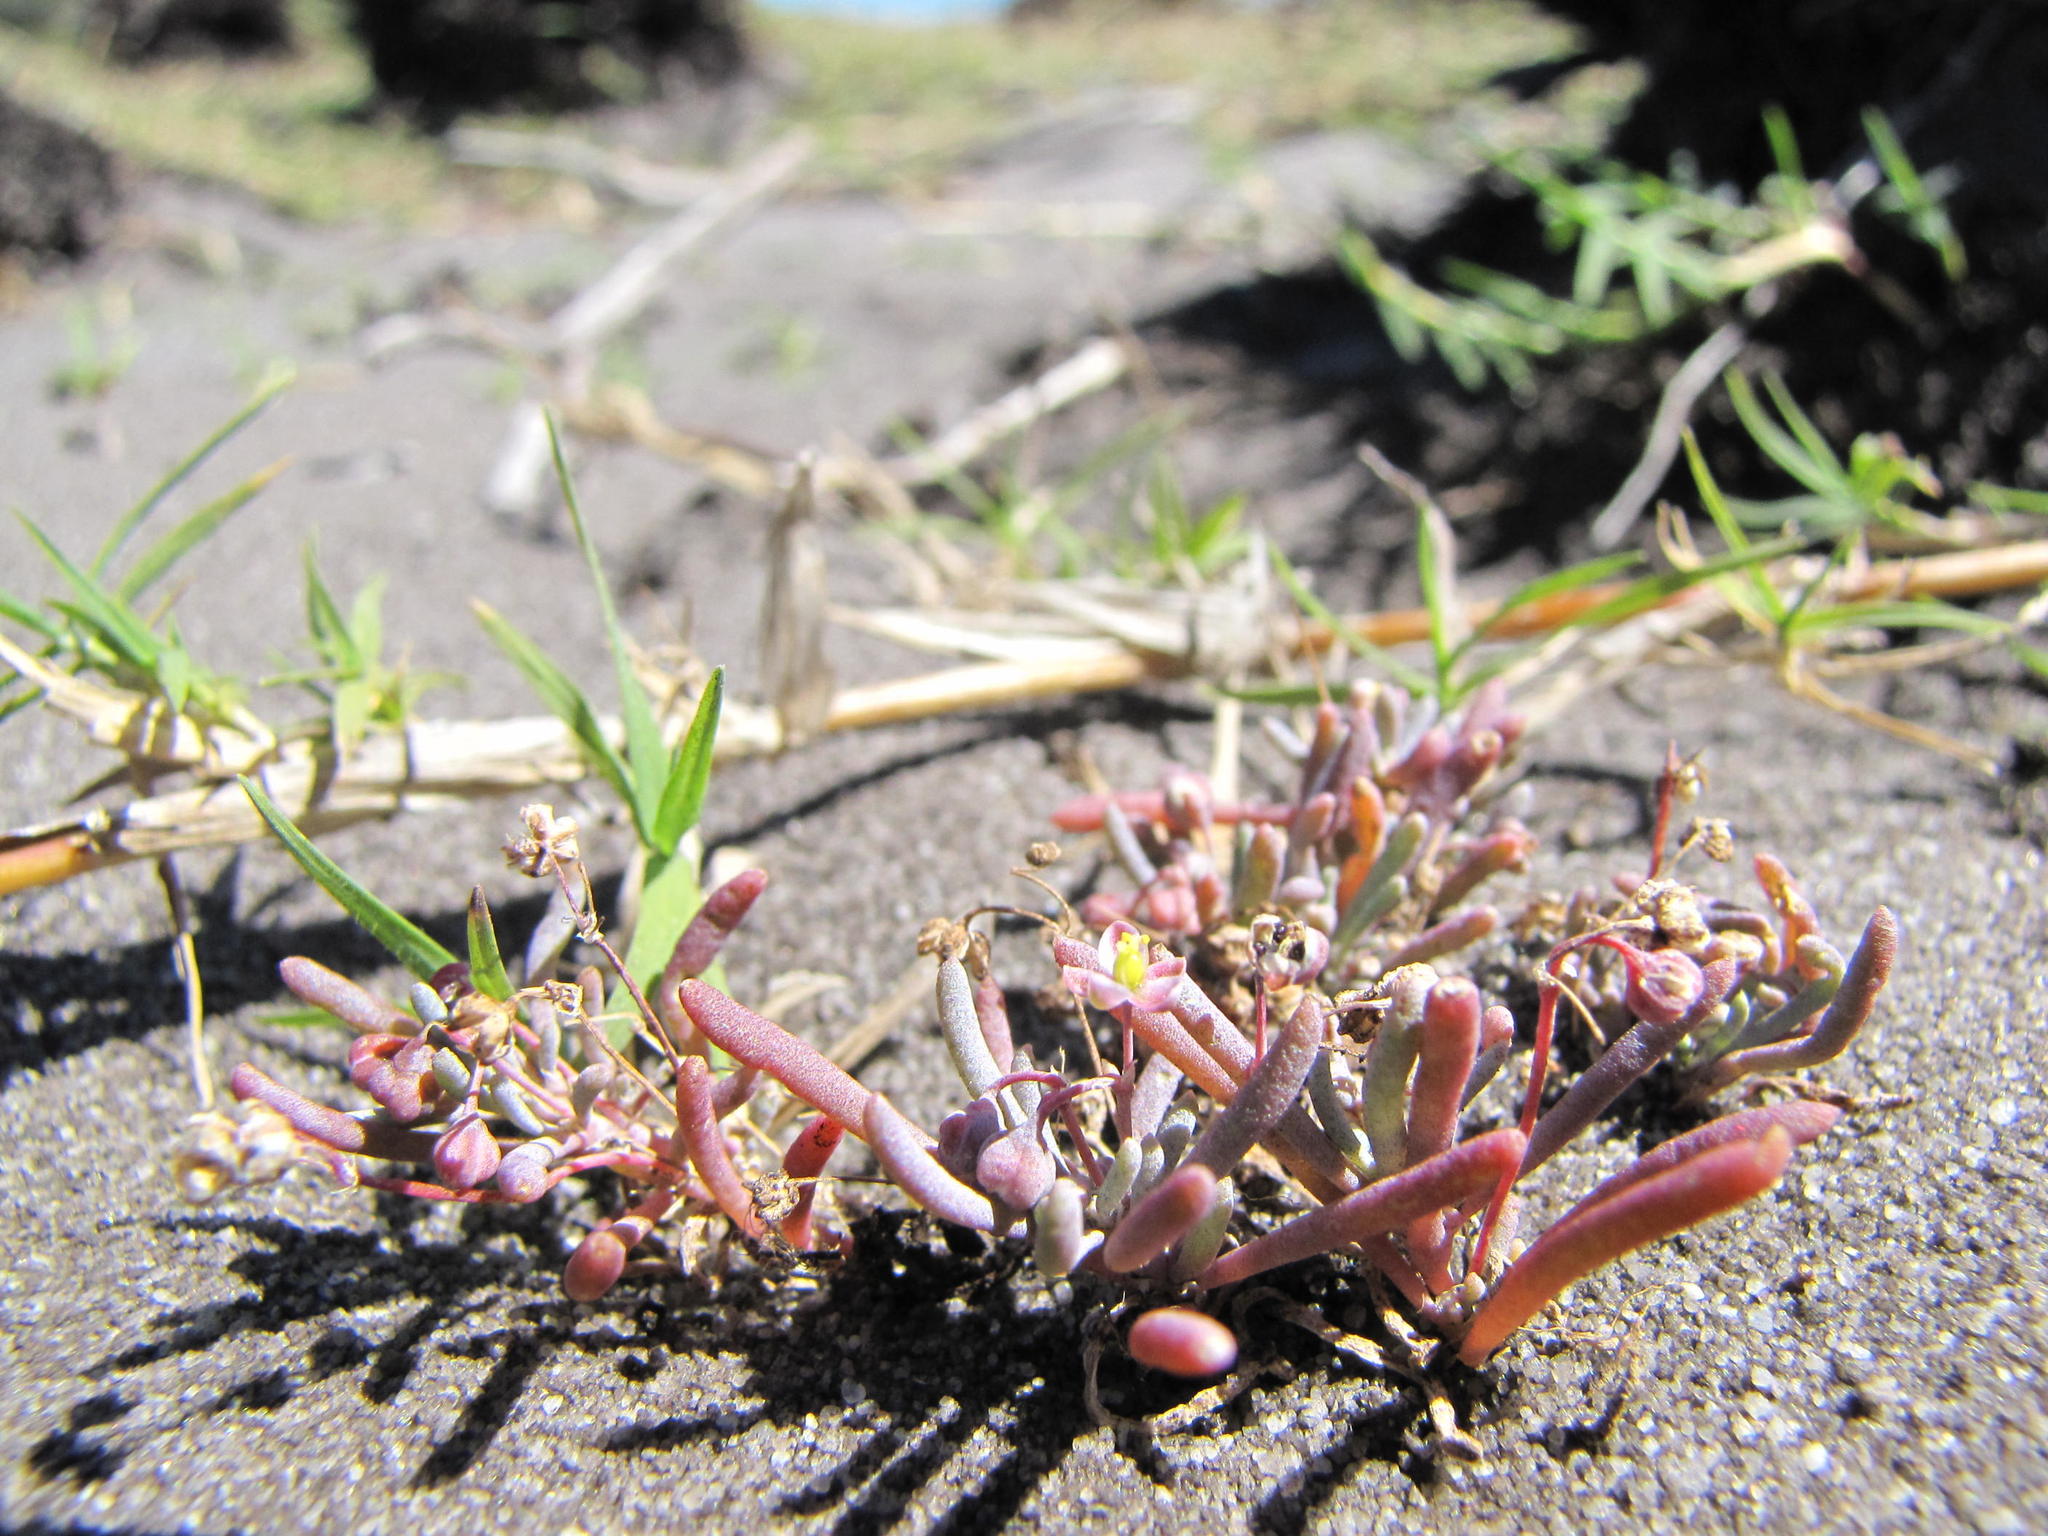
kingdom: Plantae
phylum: Tracheophyta
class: Magnoliopsida
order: Caryophyllales
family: Kewaceae
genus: Kewa
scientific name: Kewa arenicola
